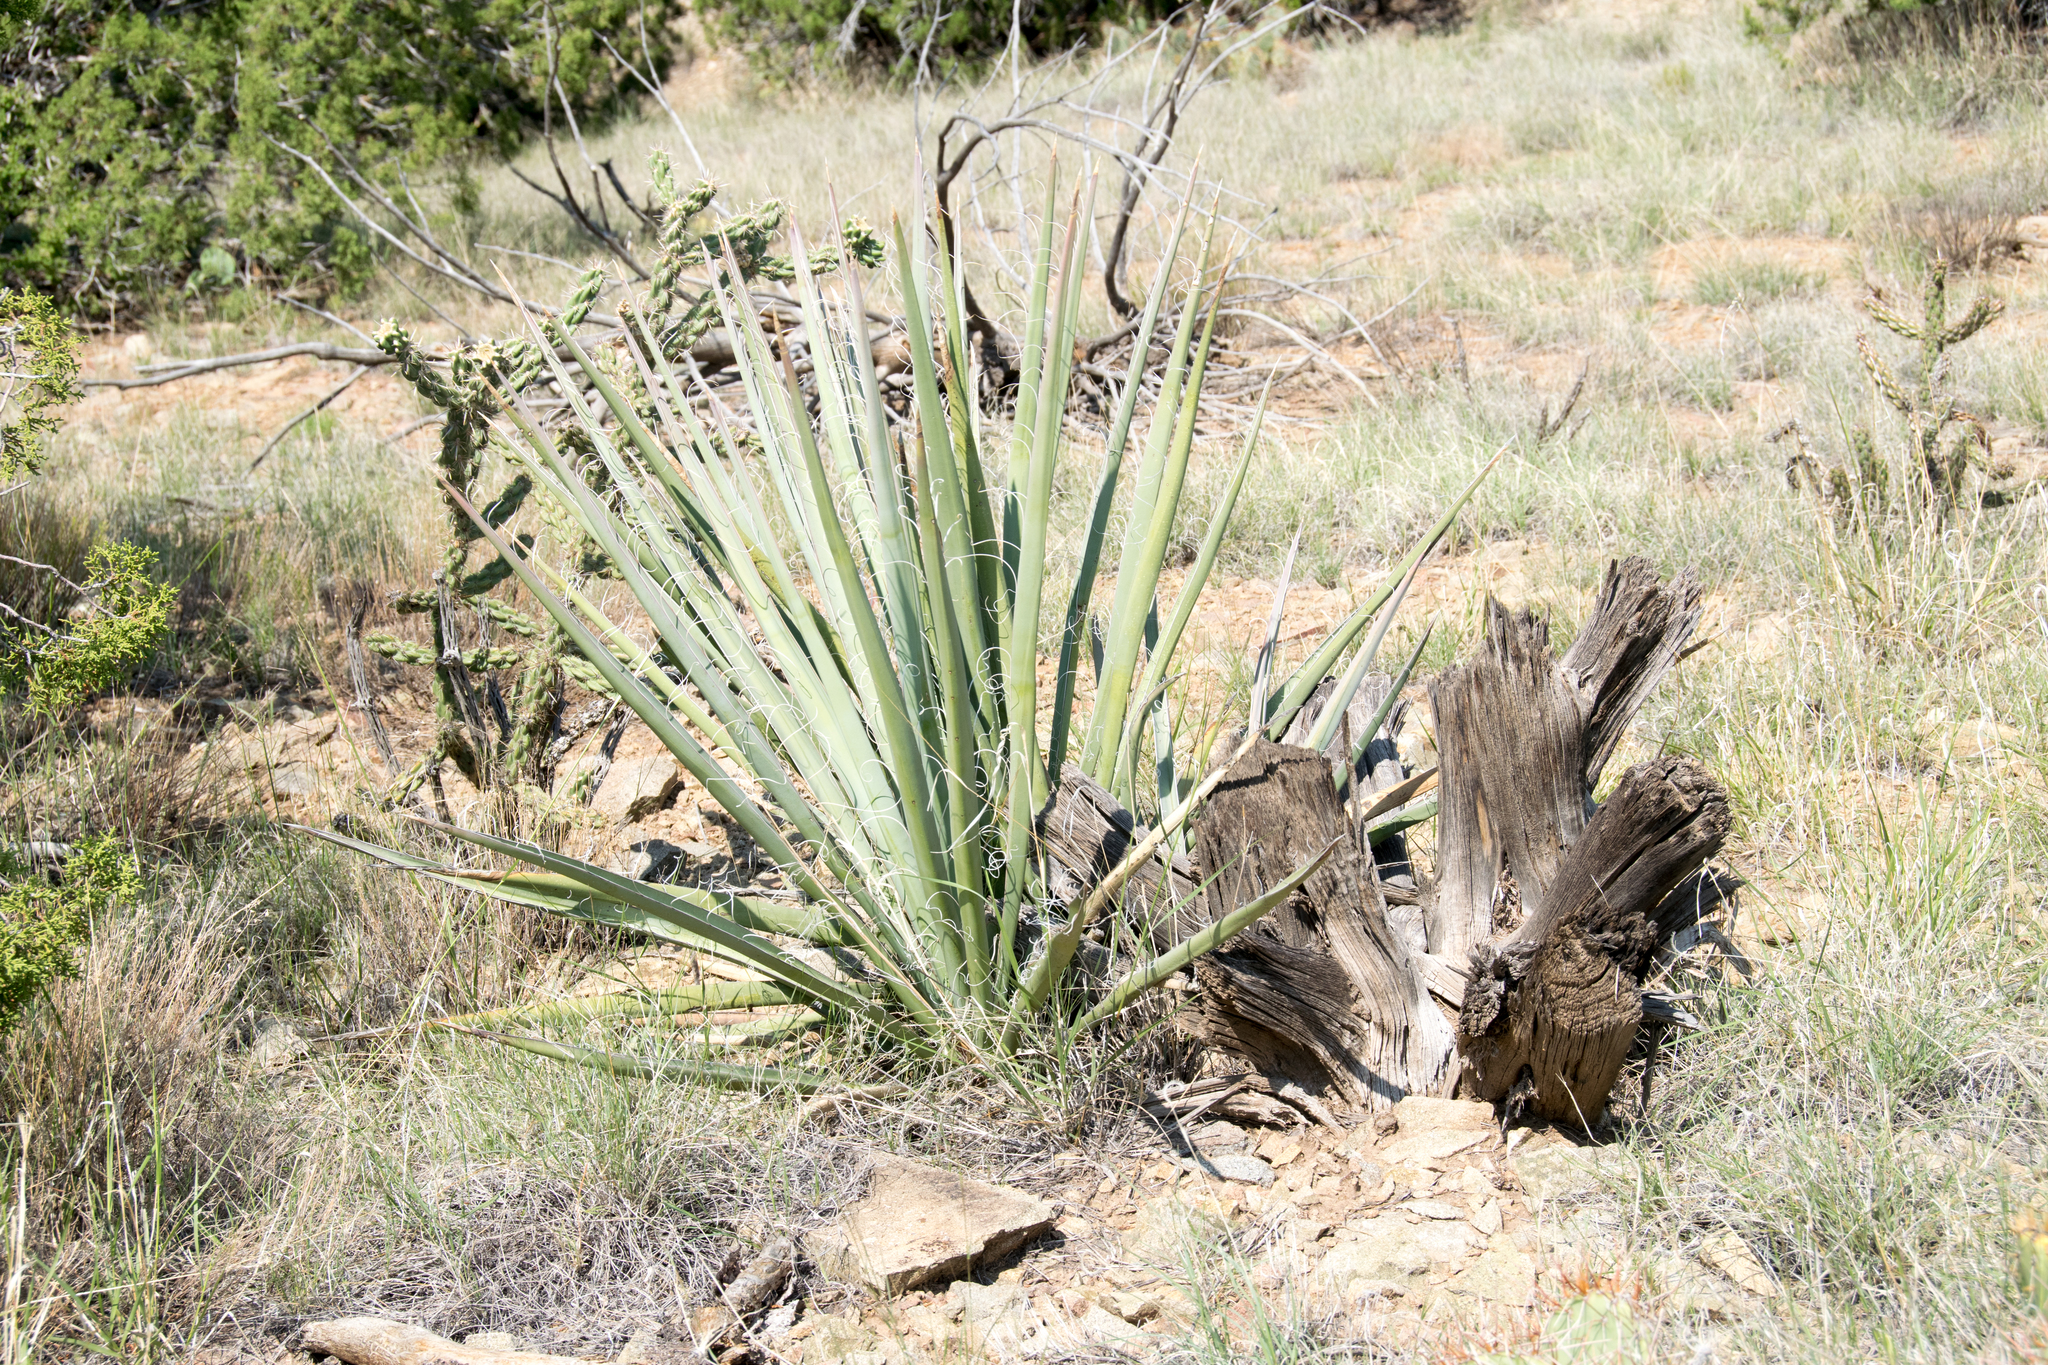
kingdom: Plantae
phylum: Tracheophyta
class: Liliopsida
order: Asparagales
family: Asparagaceae
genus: Yucca
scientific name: Yucca baccata
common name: Banana yucca
